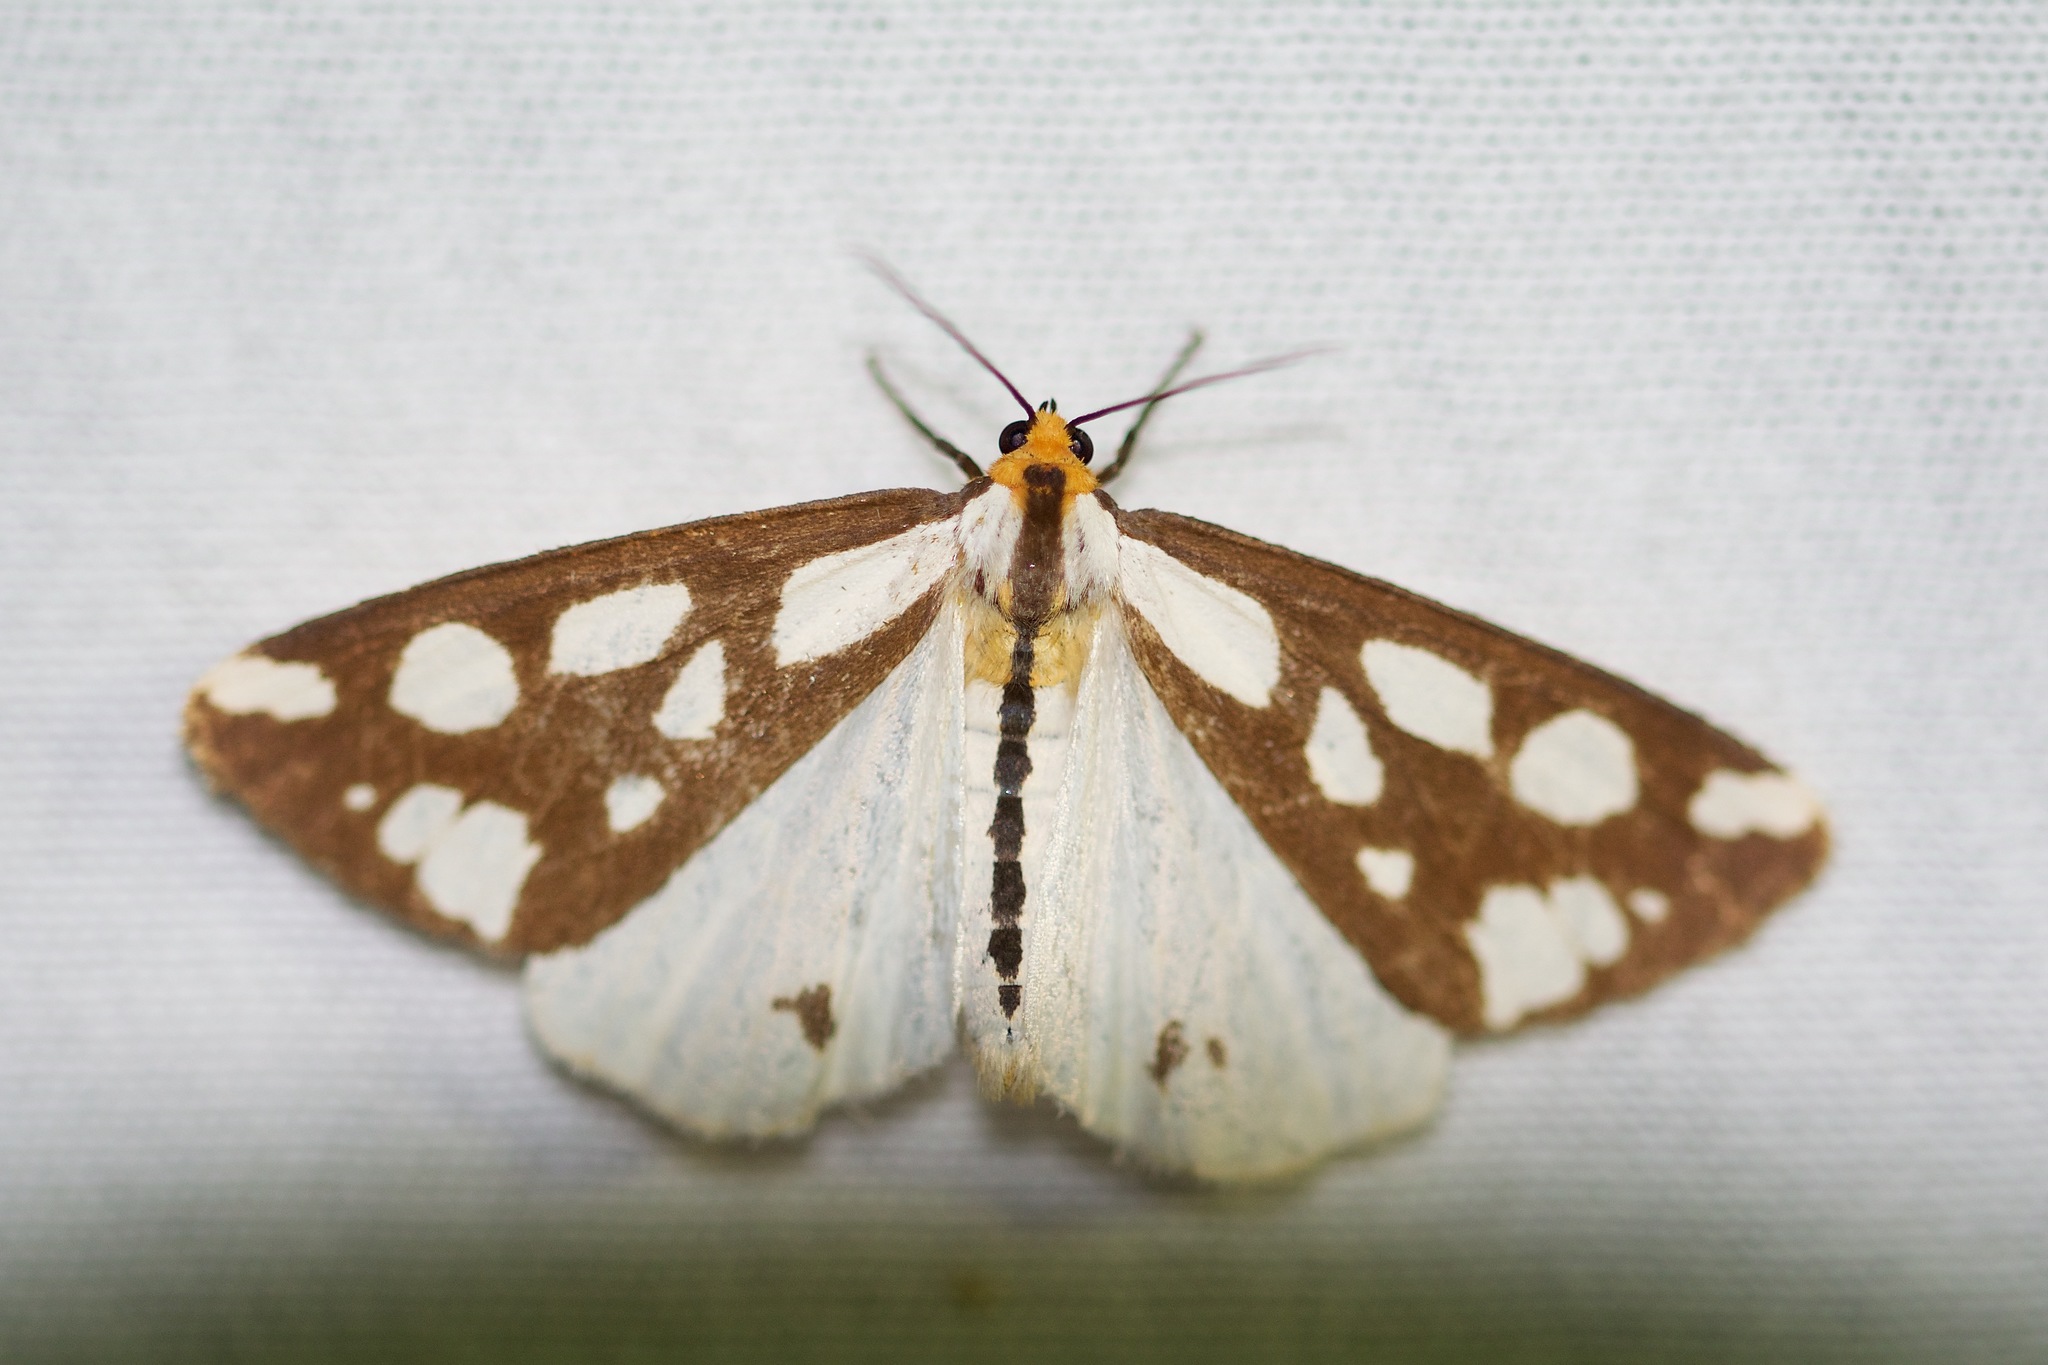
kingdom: Animalia
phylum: Arthropoda
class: Insecta
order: Lepidoptera
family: Erebidae
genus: Haploa
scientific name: Haploa confusa
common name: Confused haploa moth
